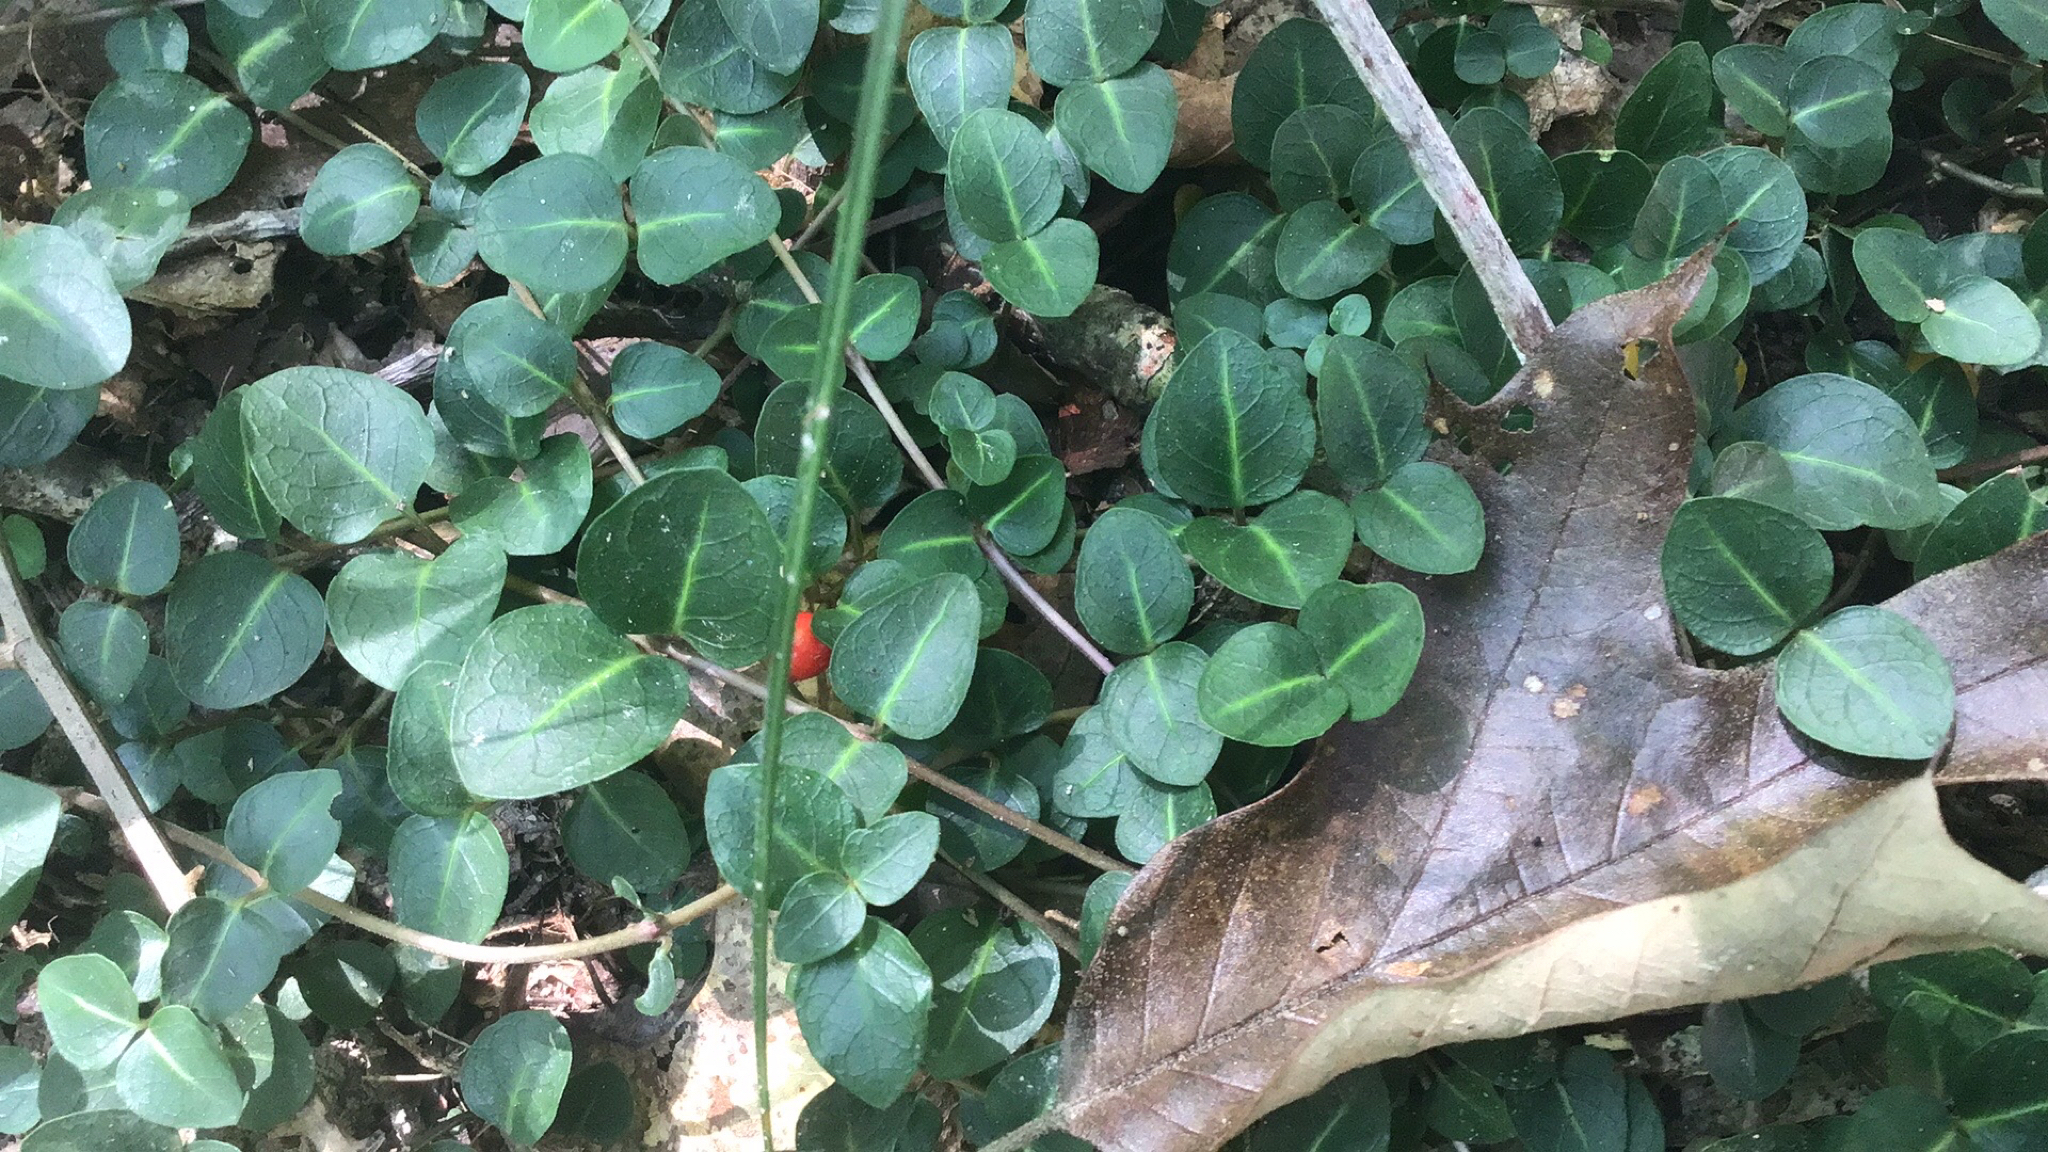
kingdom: Plantae
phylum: Tracheophyta
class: Magnoliopsida
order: Gentianales
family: Rubiaceae
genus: Mitchella
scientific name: Mitchella repens
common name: Partridge-berry
